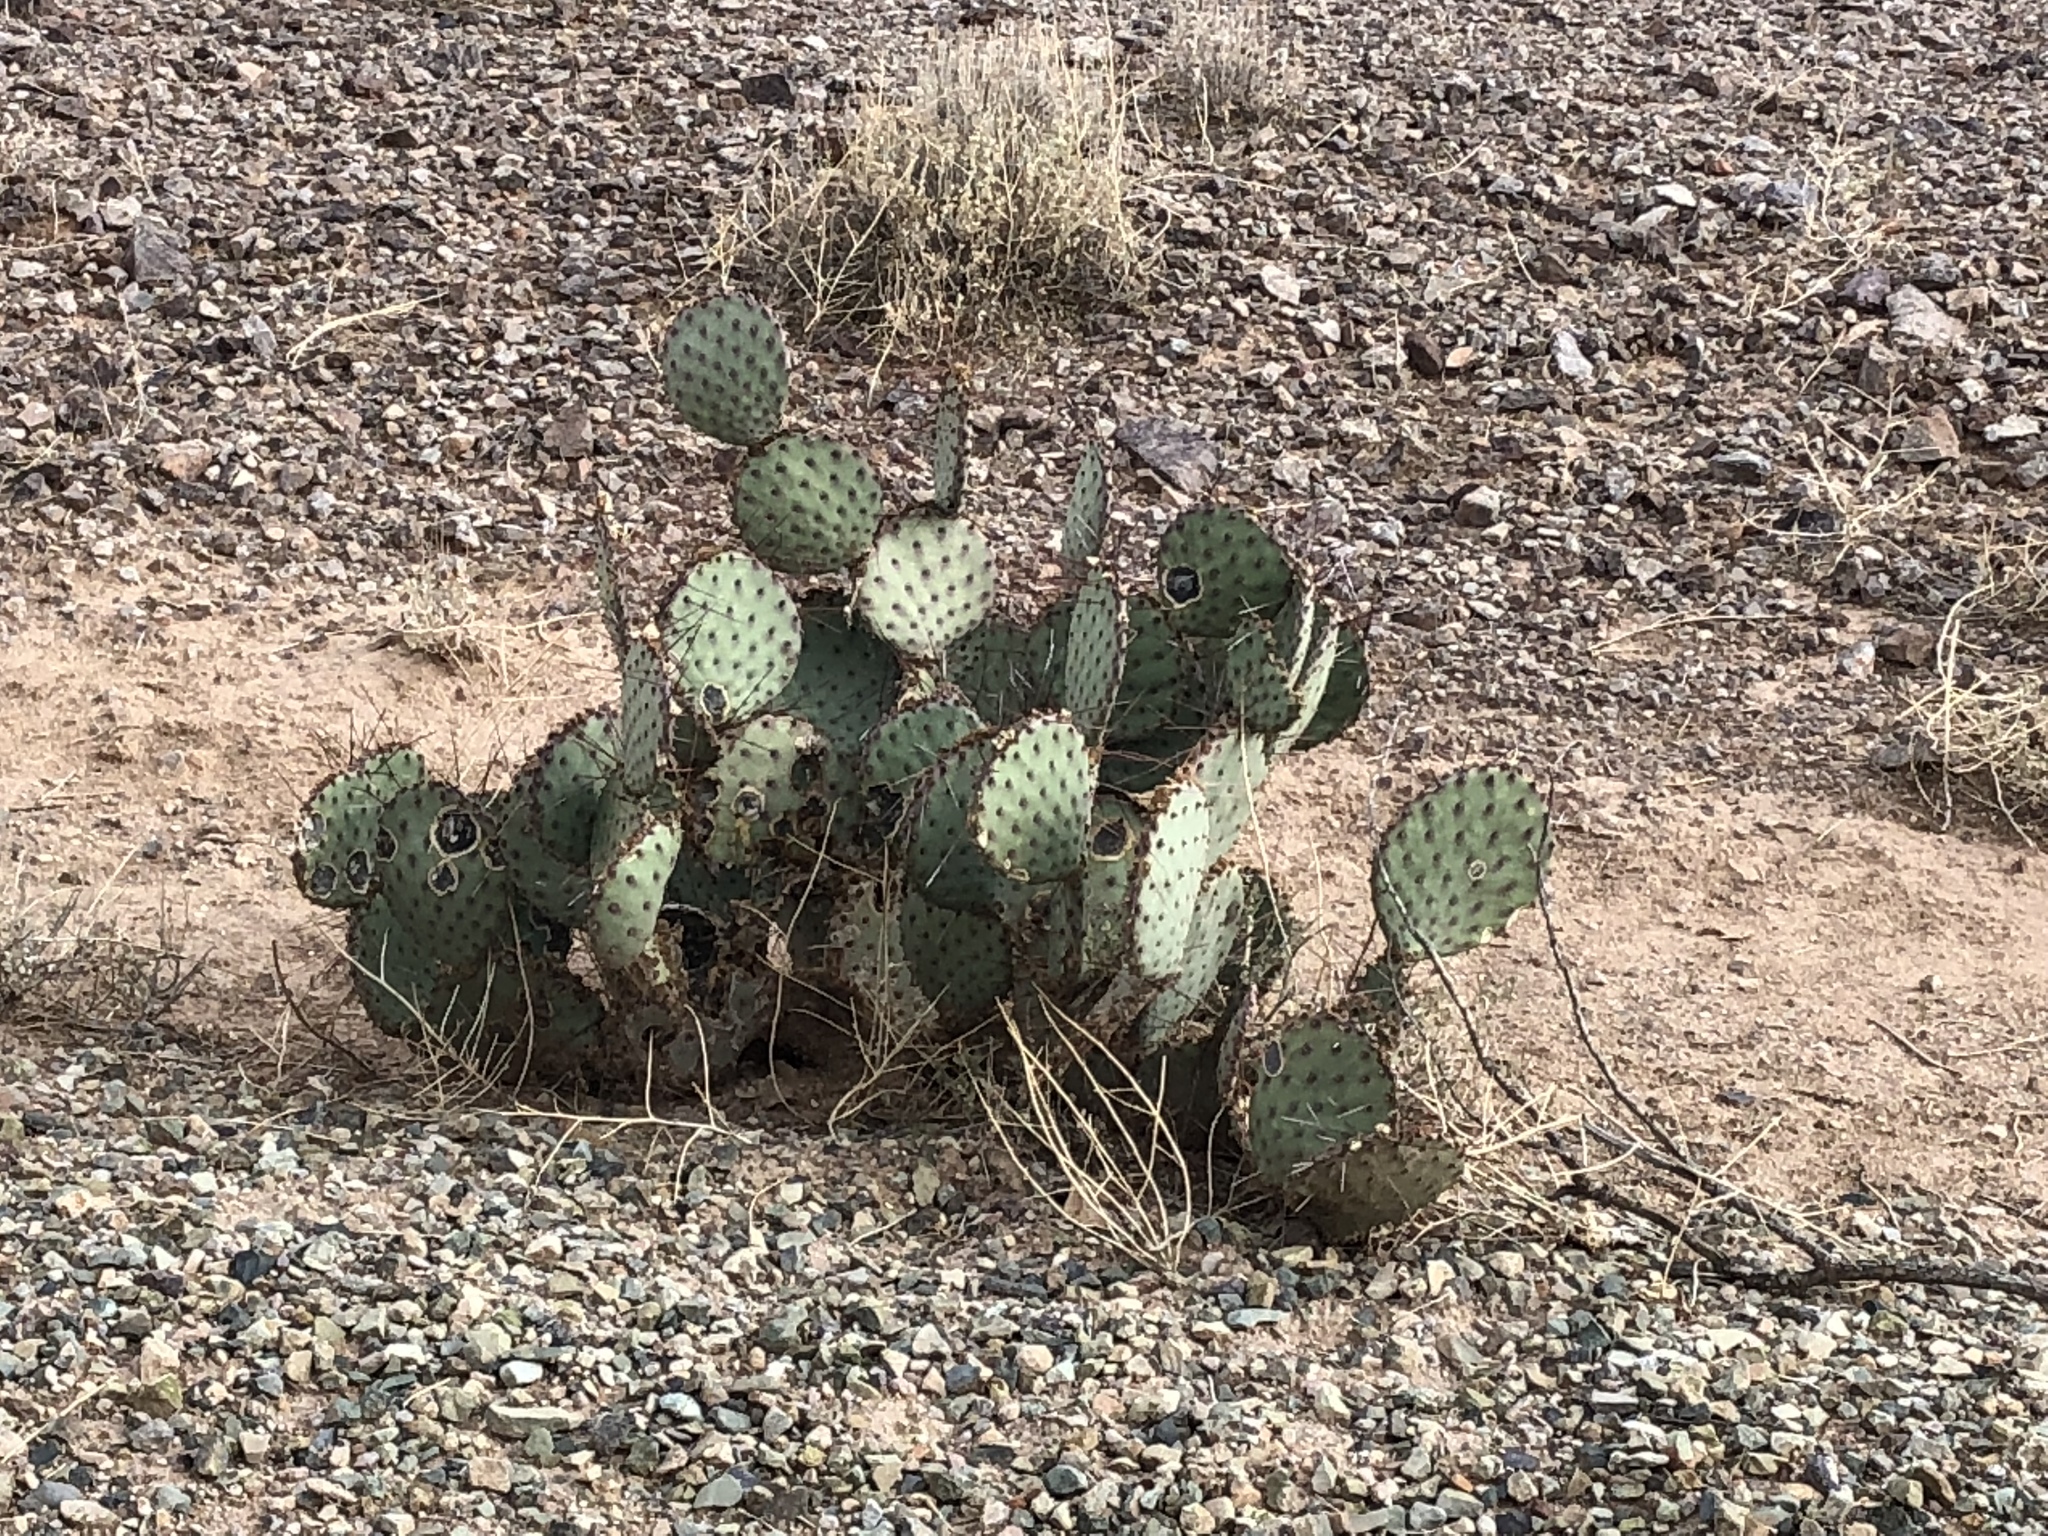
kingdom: Plantae
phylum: Tracheophyta
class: Magnoliopsida
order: Caryophyllales
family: Cactaceae
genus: Opuntia
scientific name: Opuntia macrocentra
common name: Purple prickly-pear
